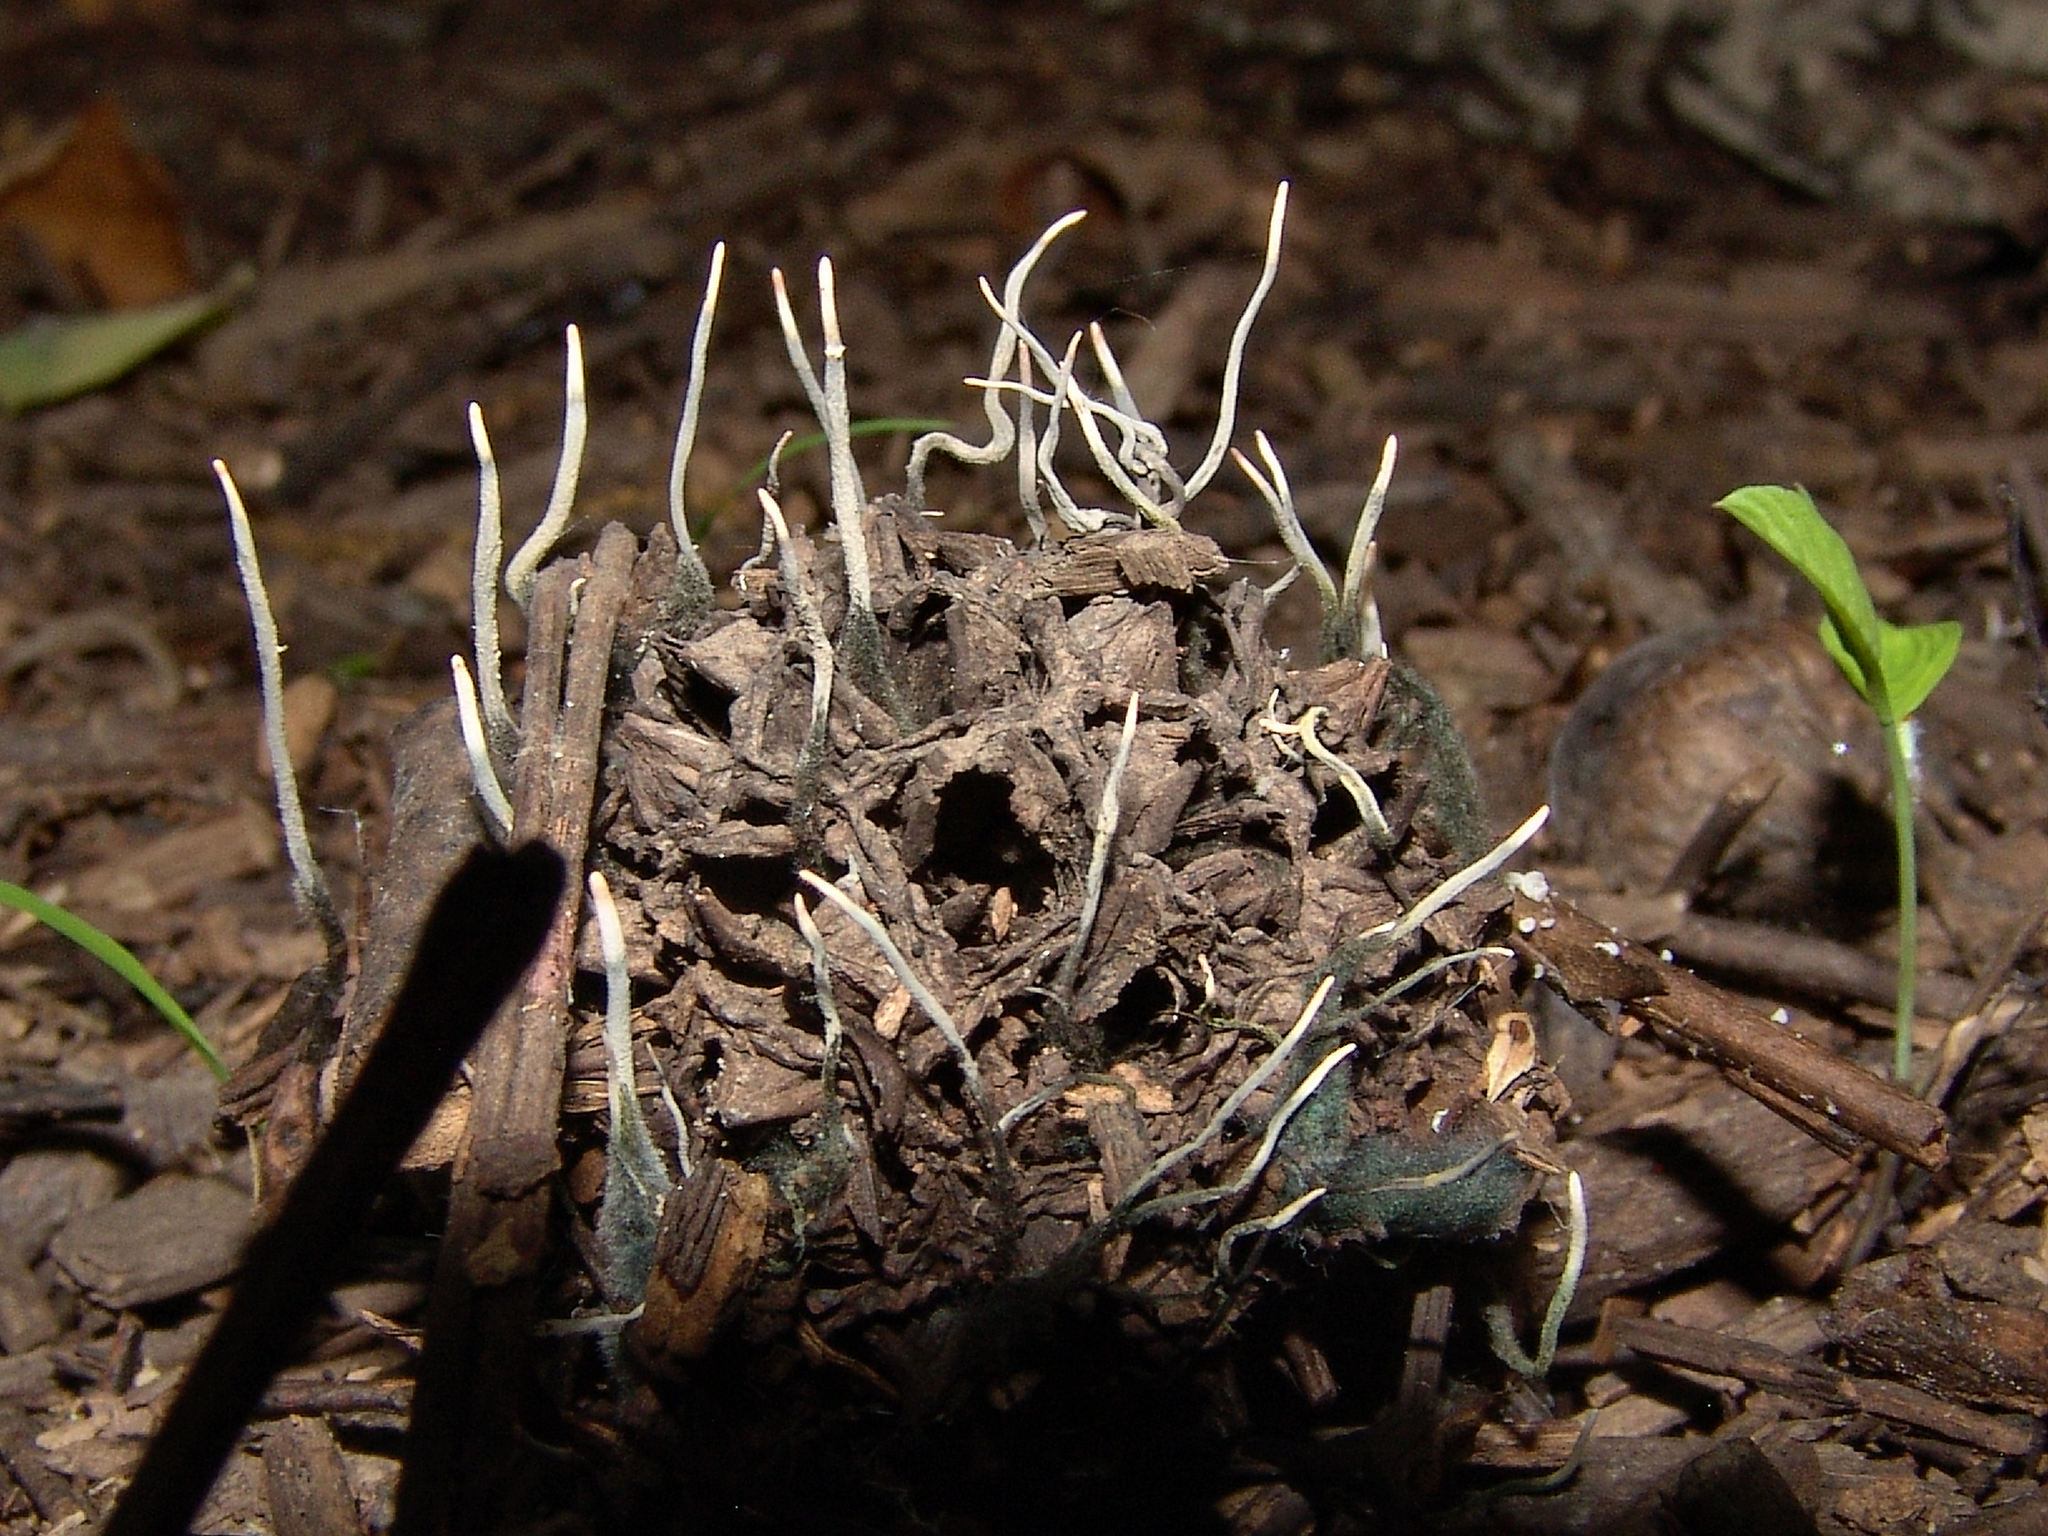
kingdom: Fungi
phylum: Ascomycota
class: Sordariomycetes
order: Xylariales
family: Xylariaceae
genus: Xylaria
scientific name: Xylaria liquidambaris
